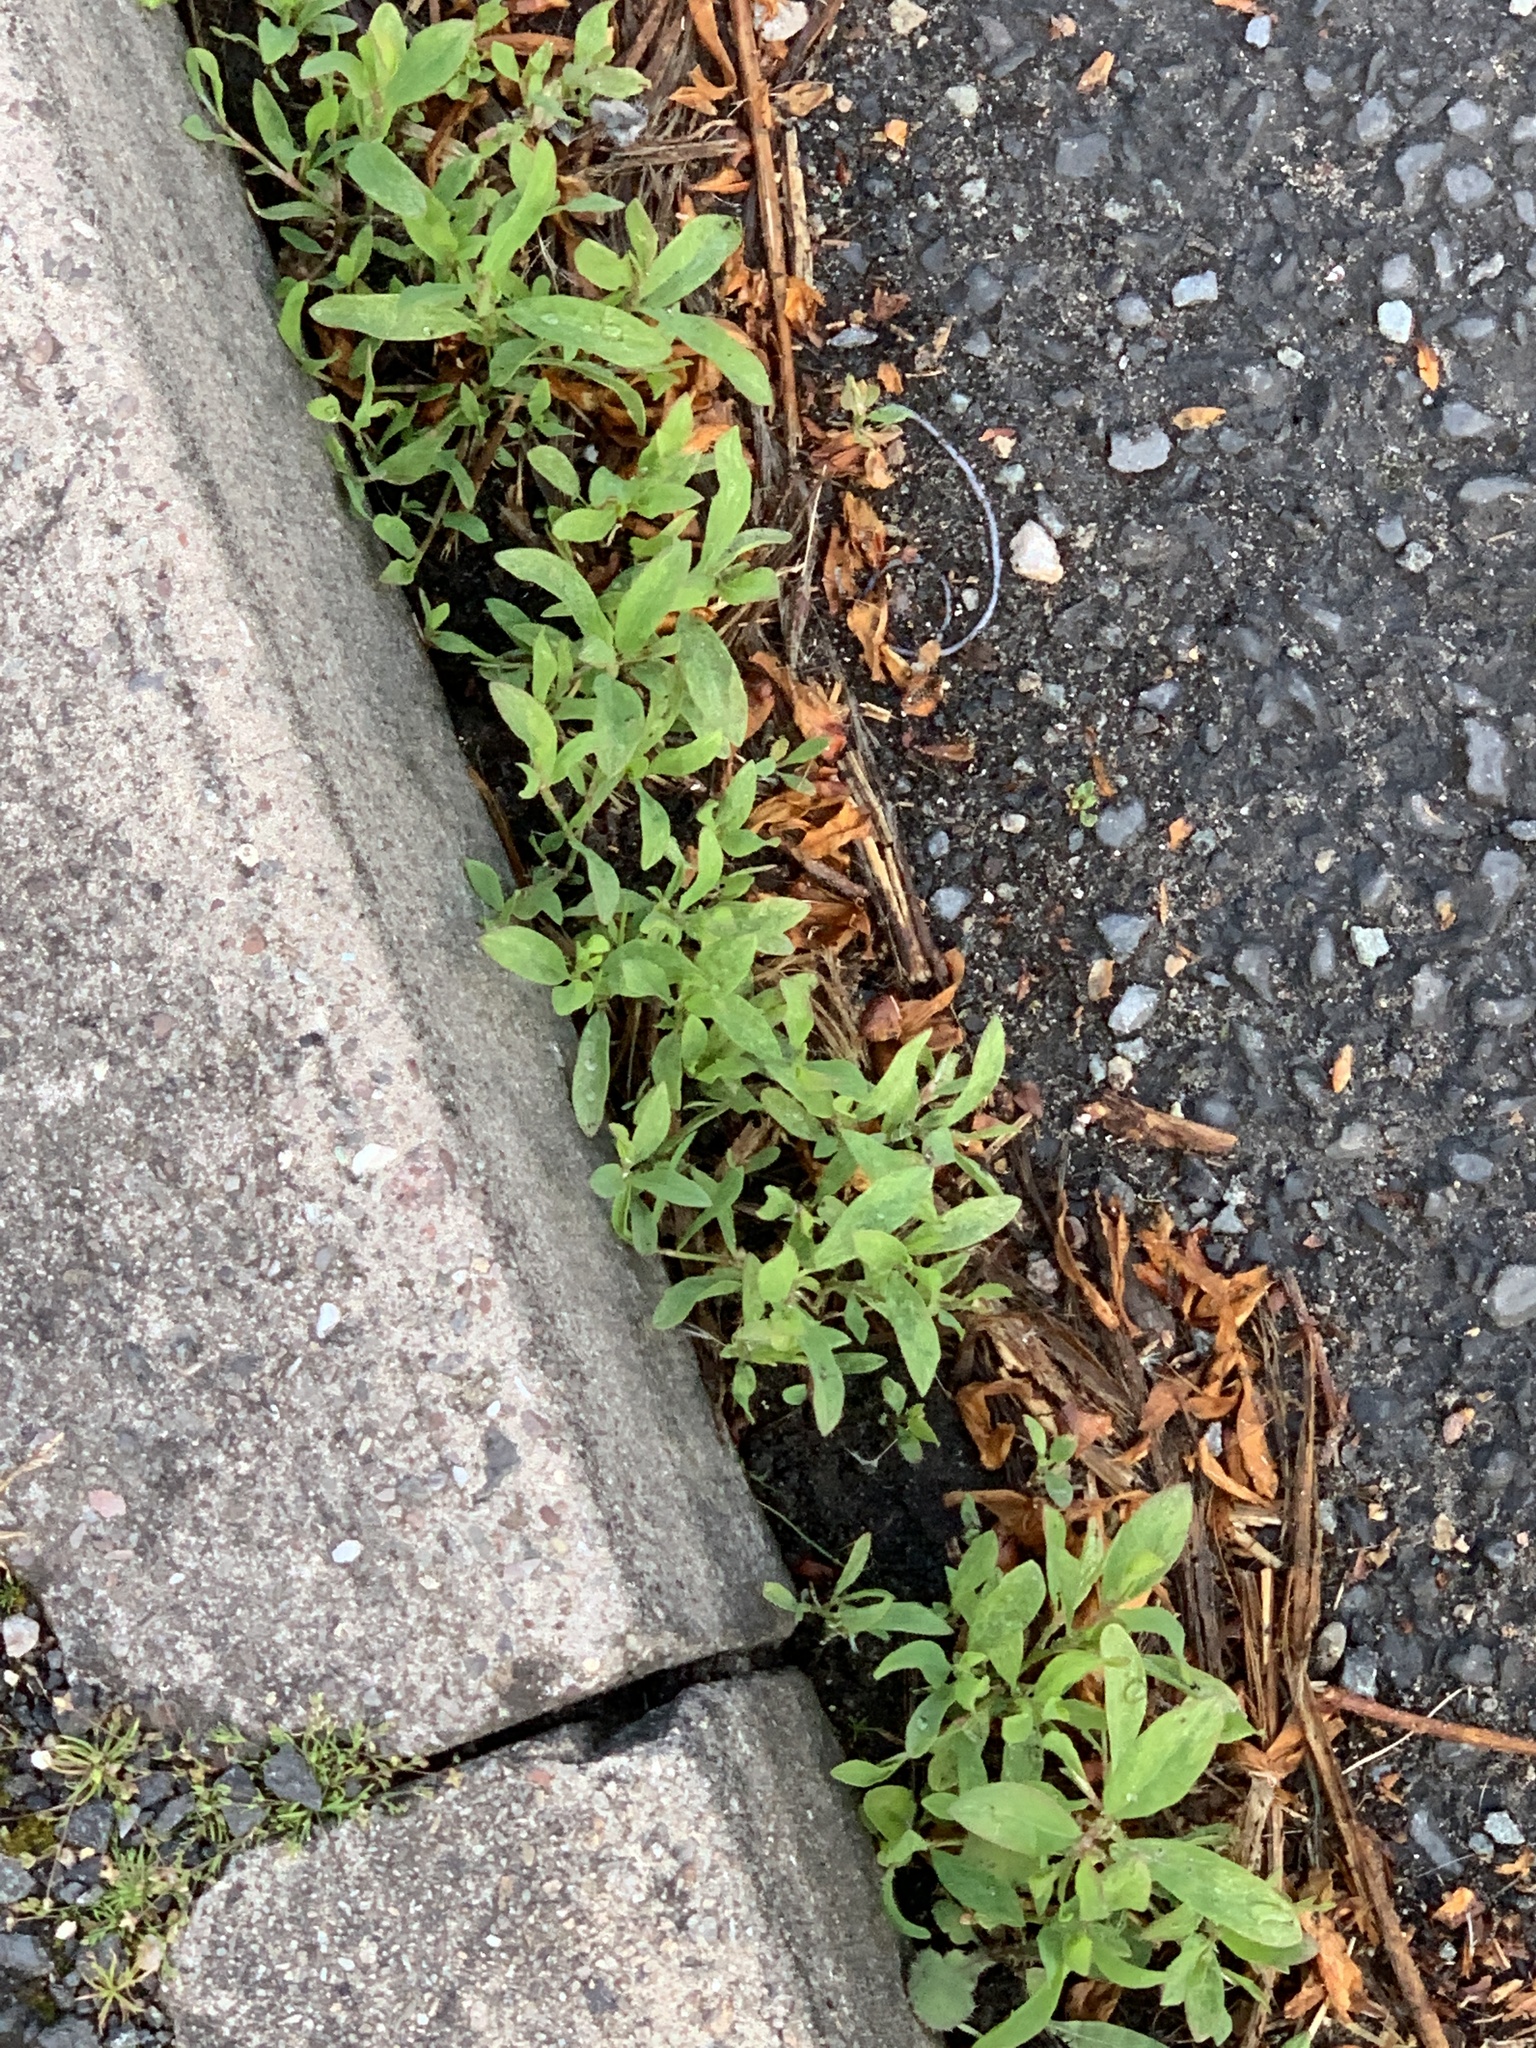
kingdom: Plantae
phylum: Tracheophyta
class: Magnoliopsida
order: Caryophyllales
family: Polygonaceae
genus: Polygonum
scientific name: Polygonum aviculare
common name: Prostrate knotweed
